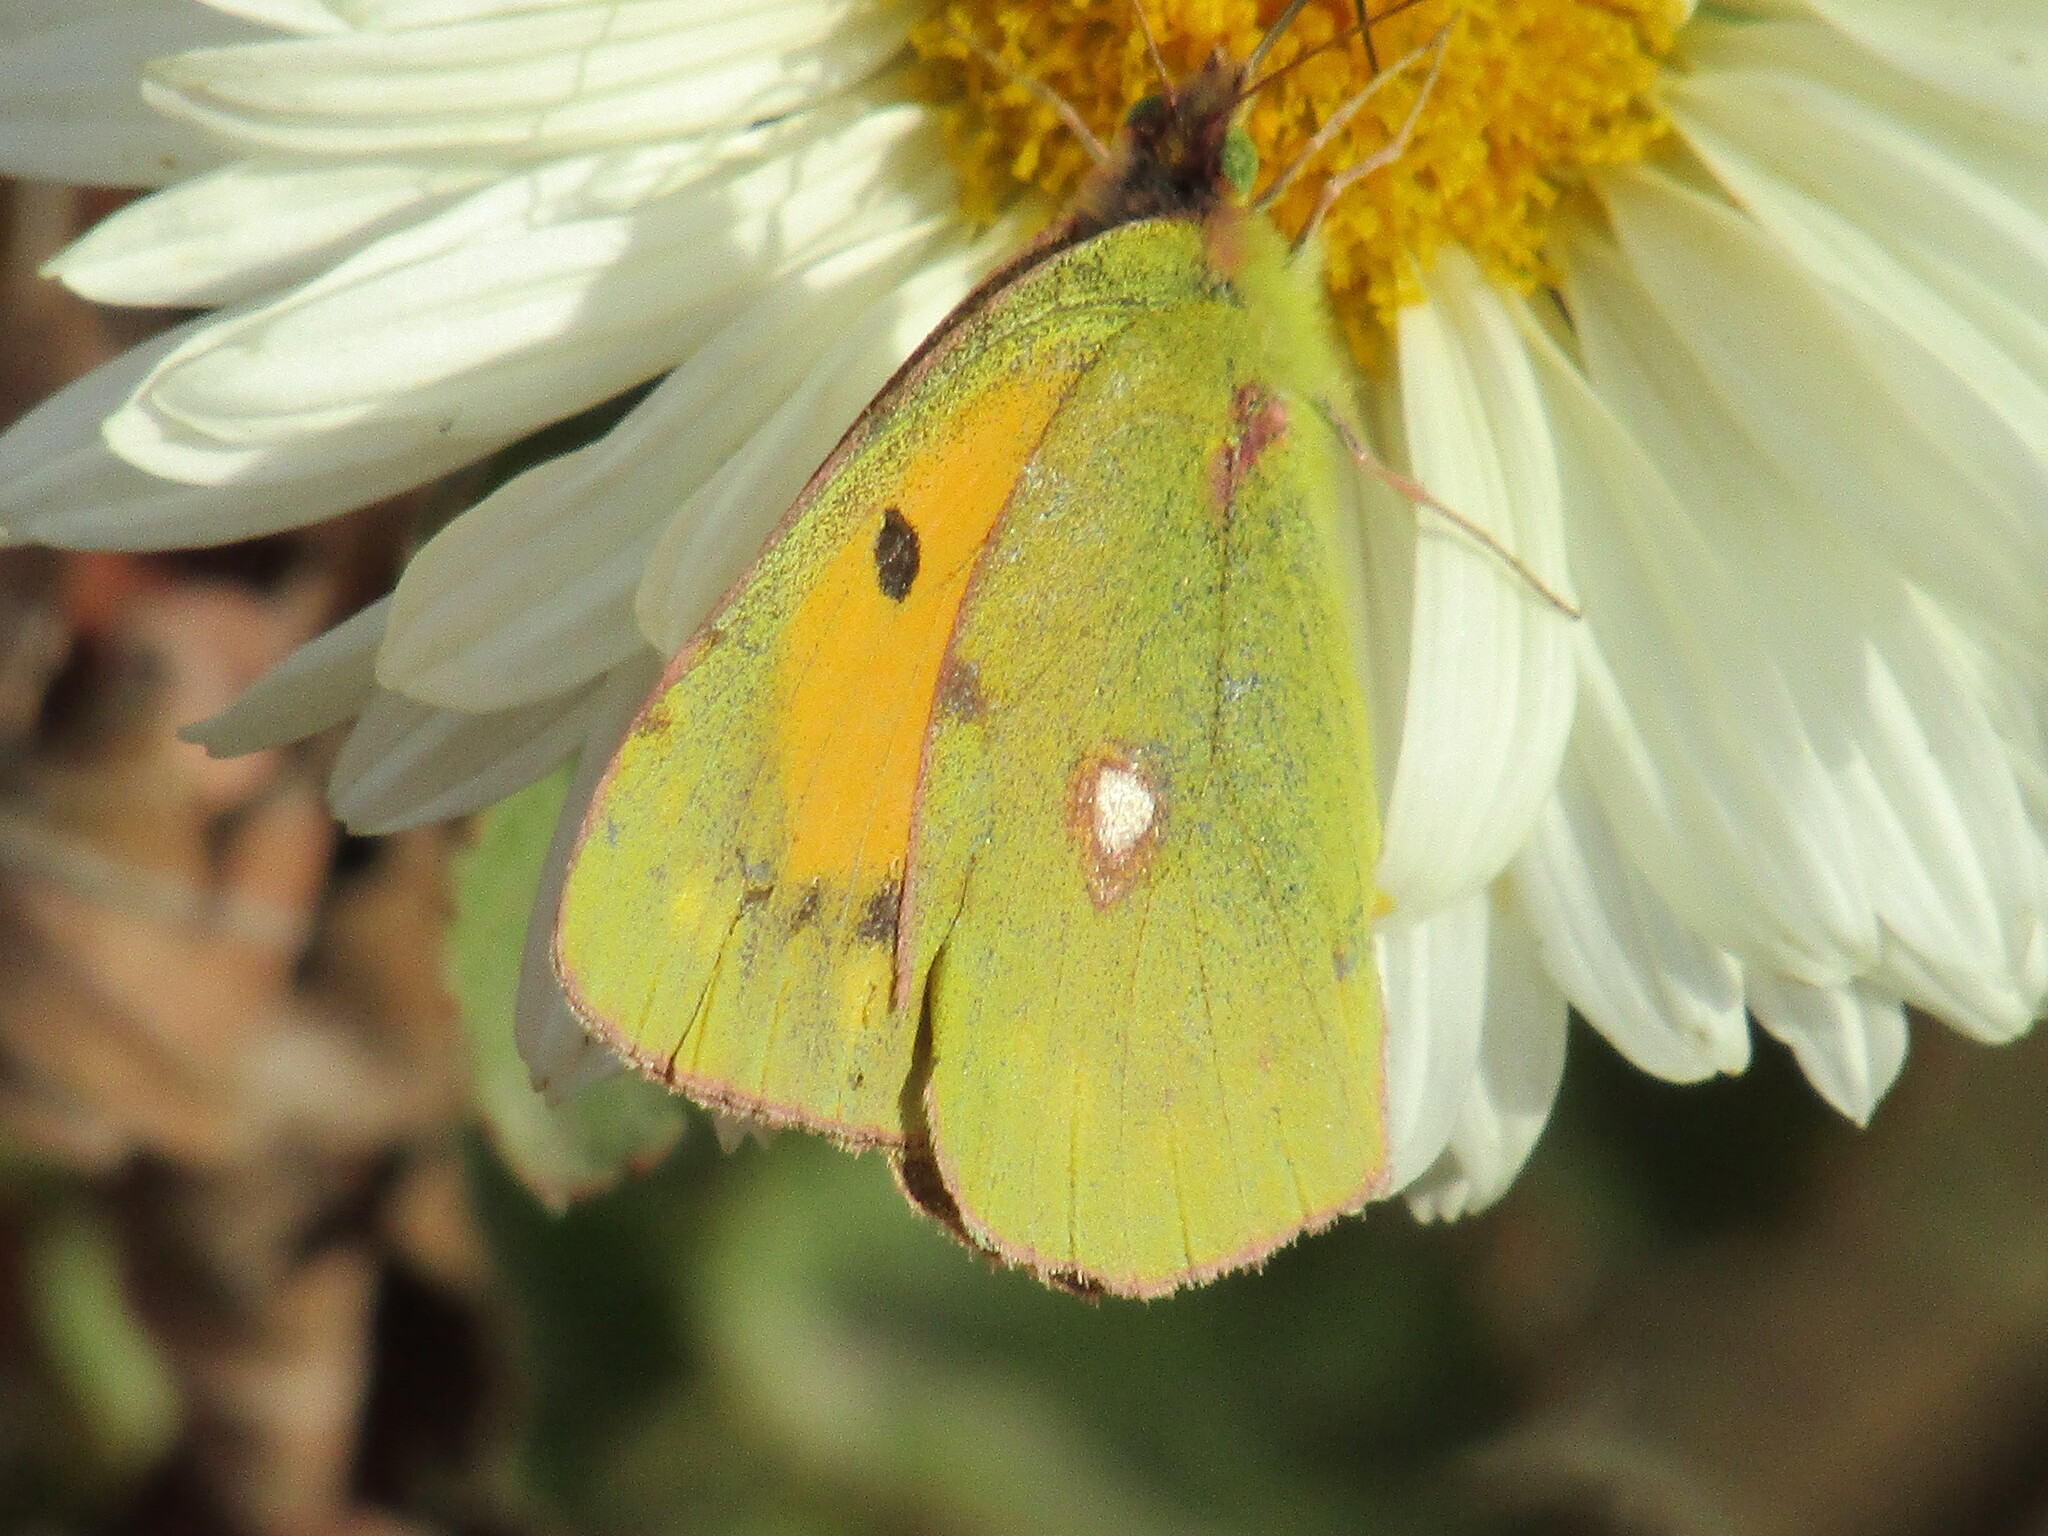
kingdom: Animalia
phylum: Arthropoda
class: Insecta
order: Lepidoptera
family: Pieridae
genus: Colias
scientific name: Colias croceus
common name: Clouded yellow
